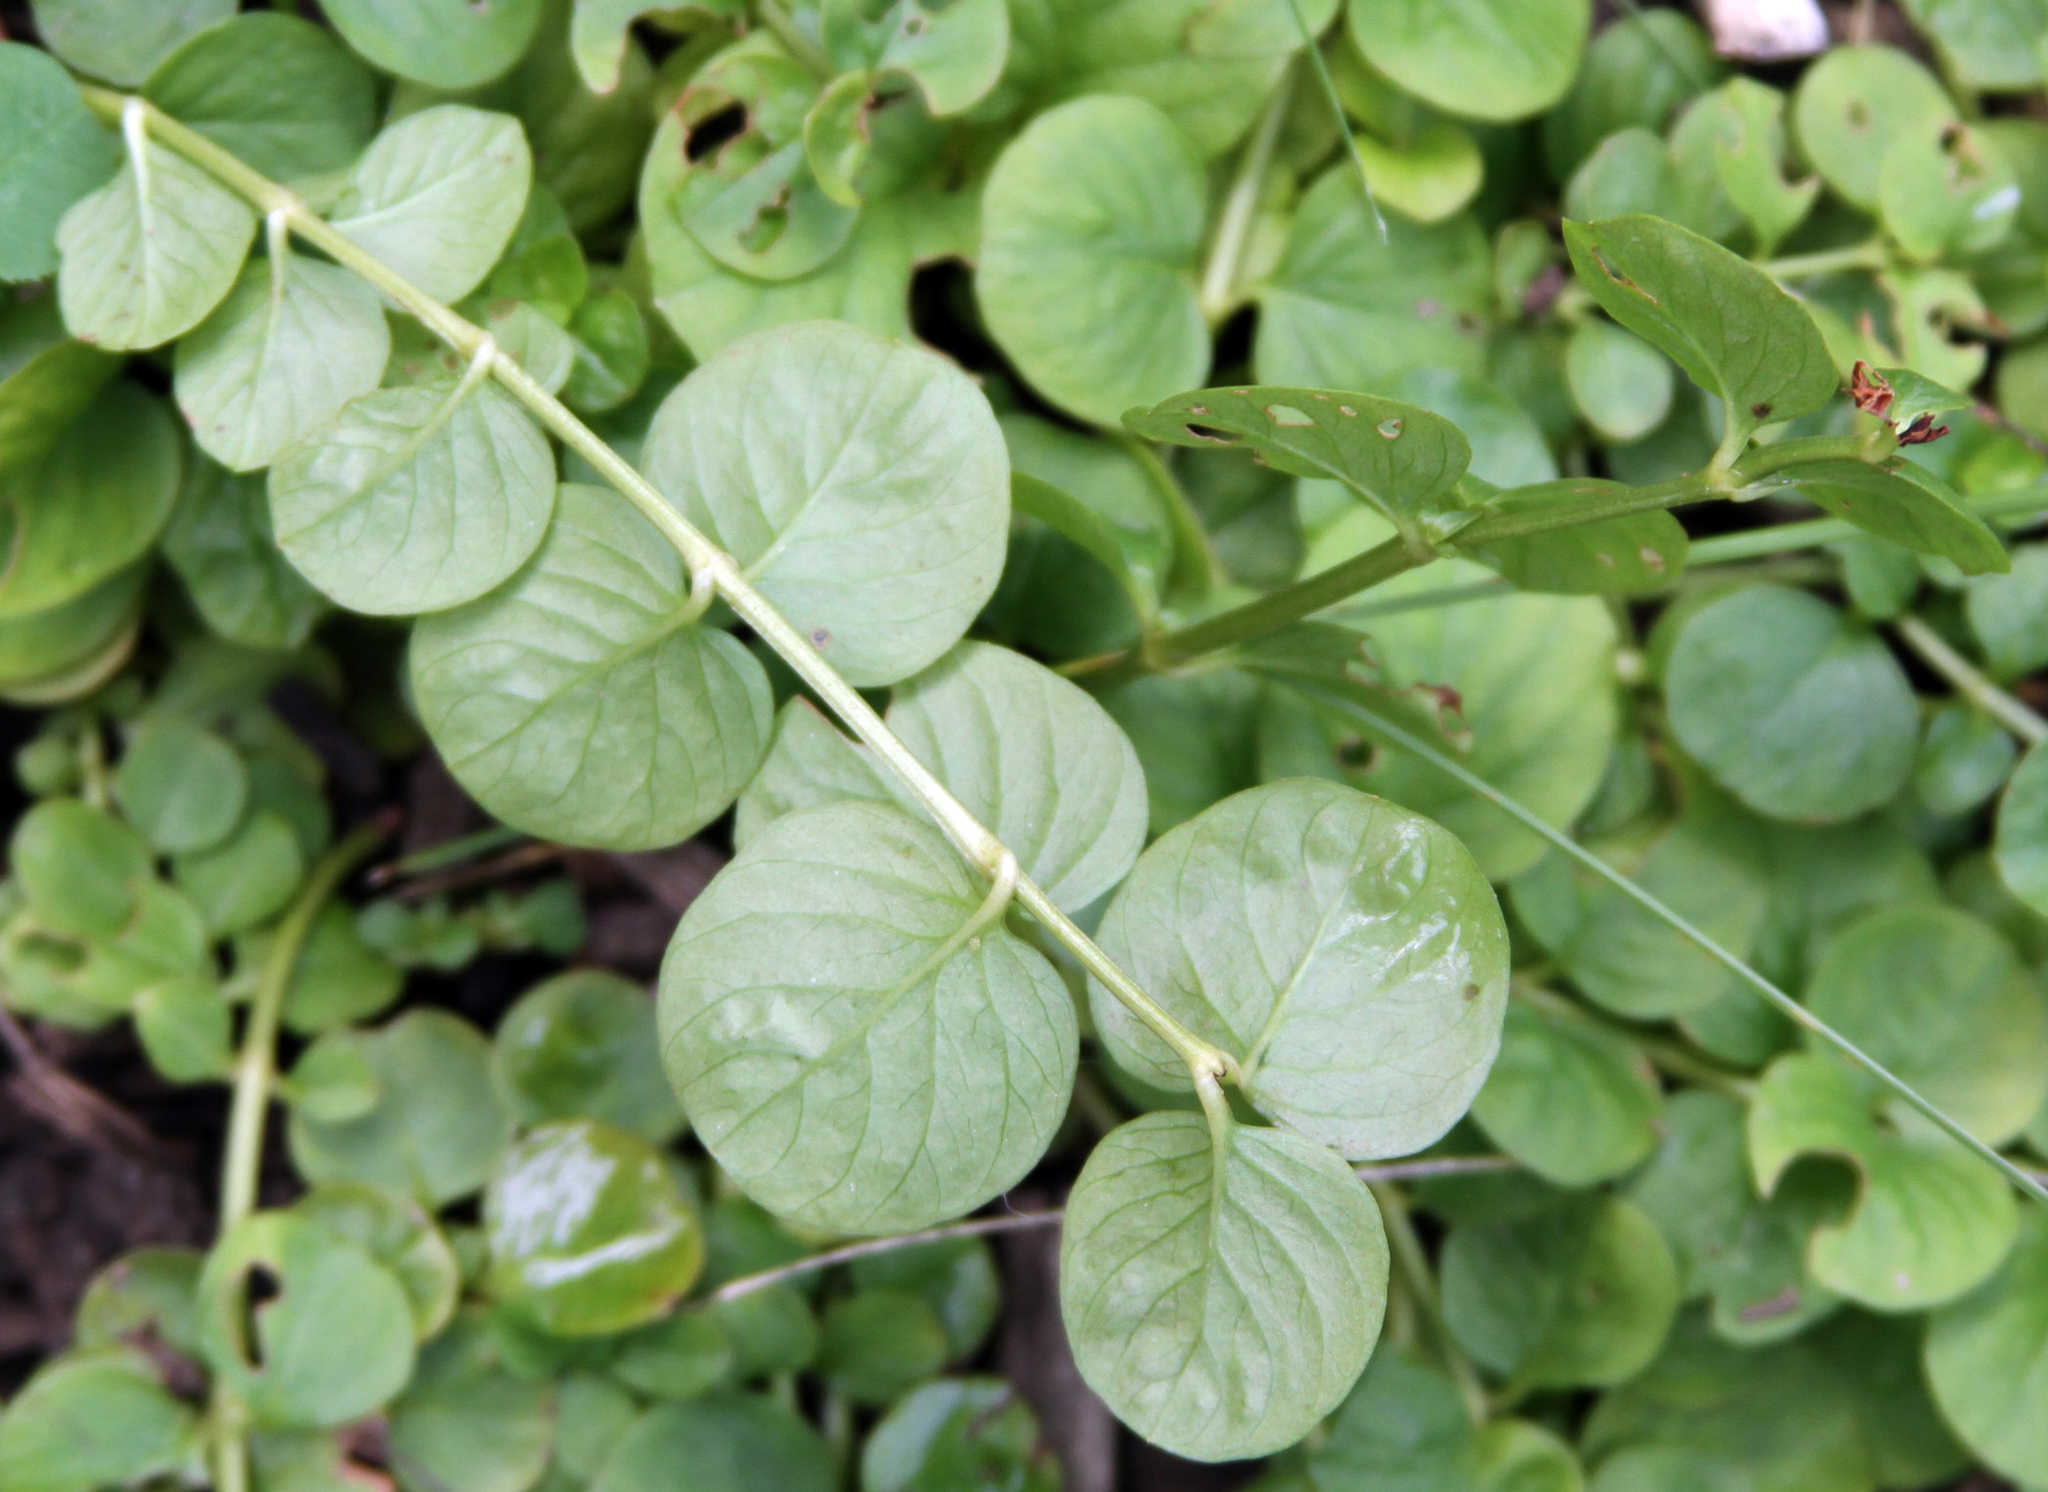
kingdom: Plantae
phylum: Tracheophyta
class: Magnoliopsida
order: Ericales
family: Primulaceae
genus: Lysimachia
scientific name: Lysimachia nummularia
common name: Moneywort
